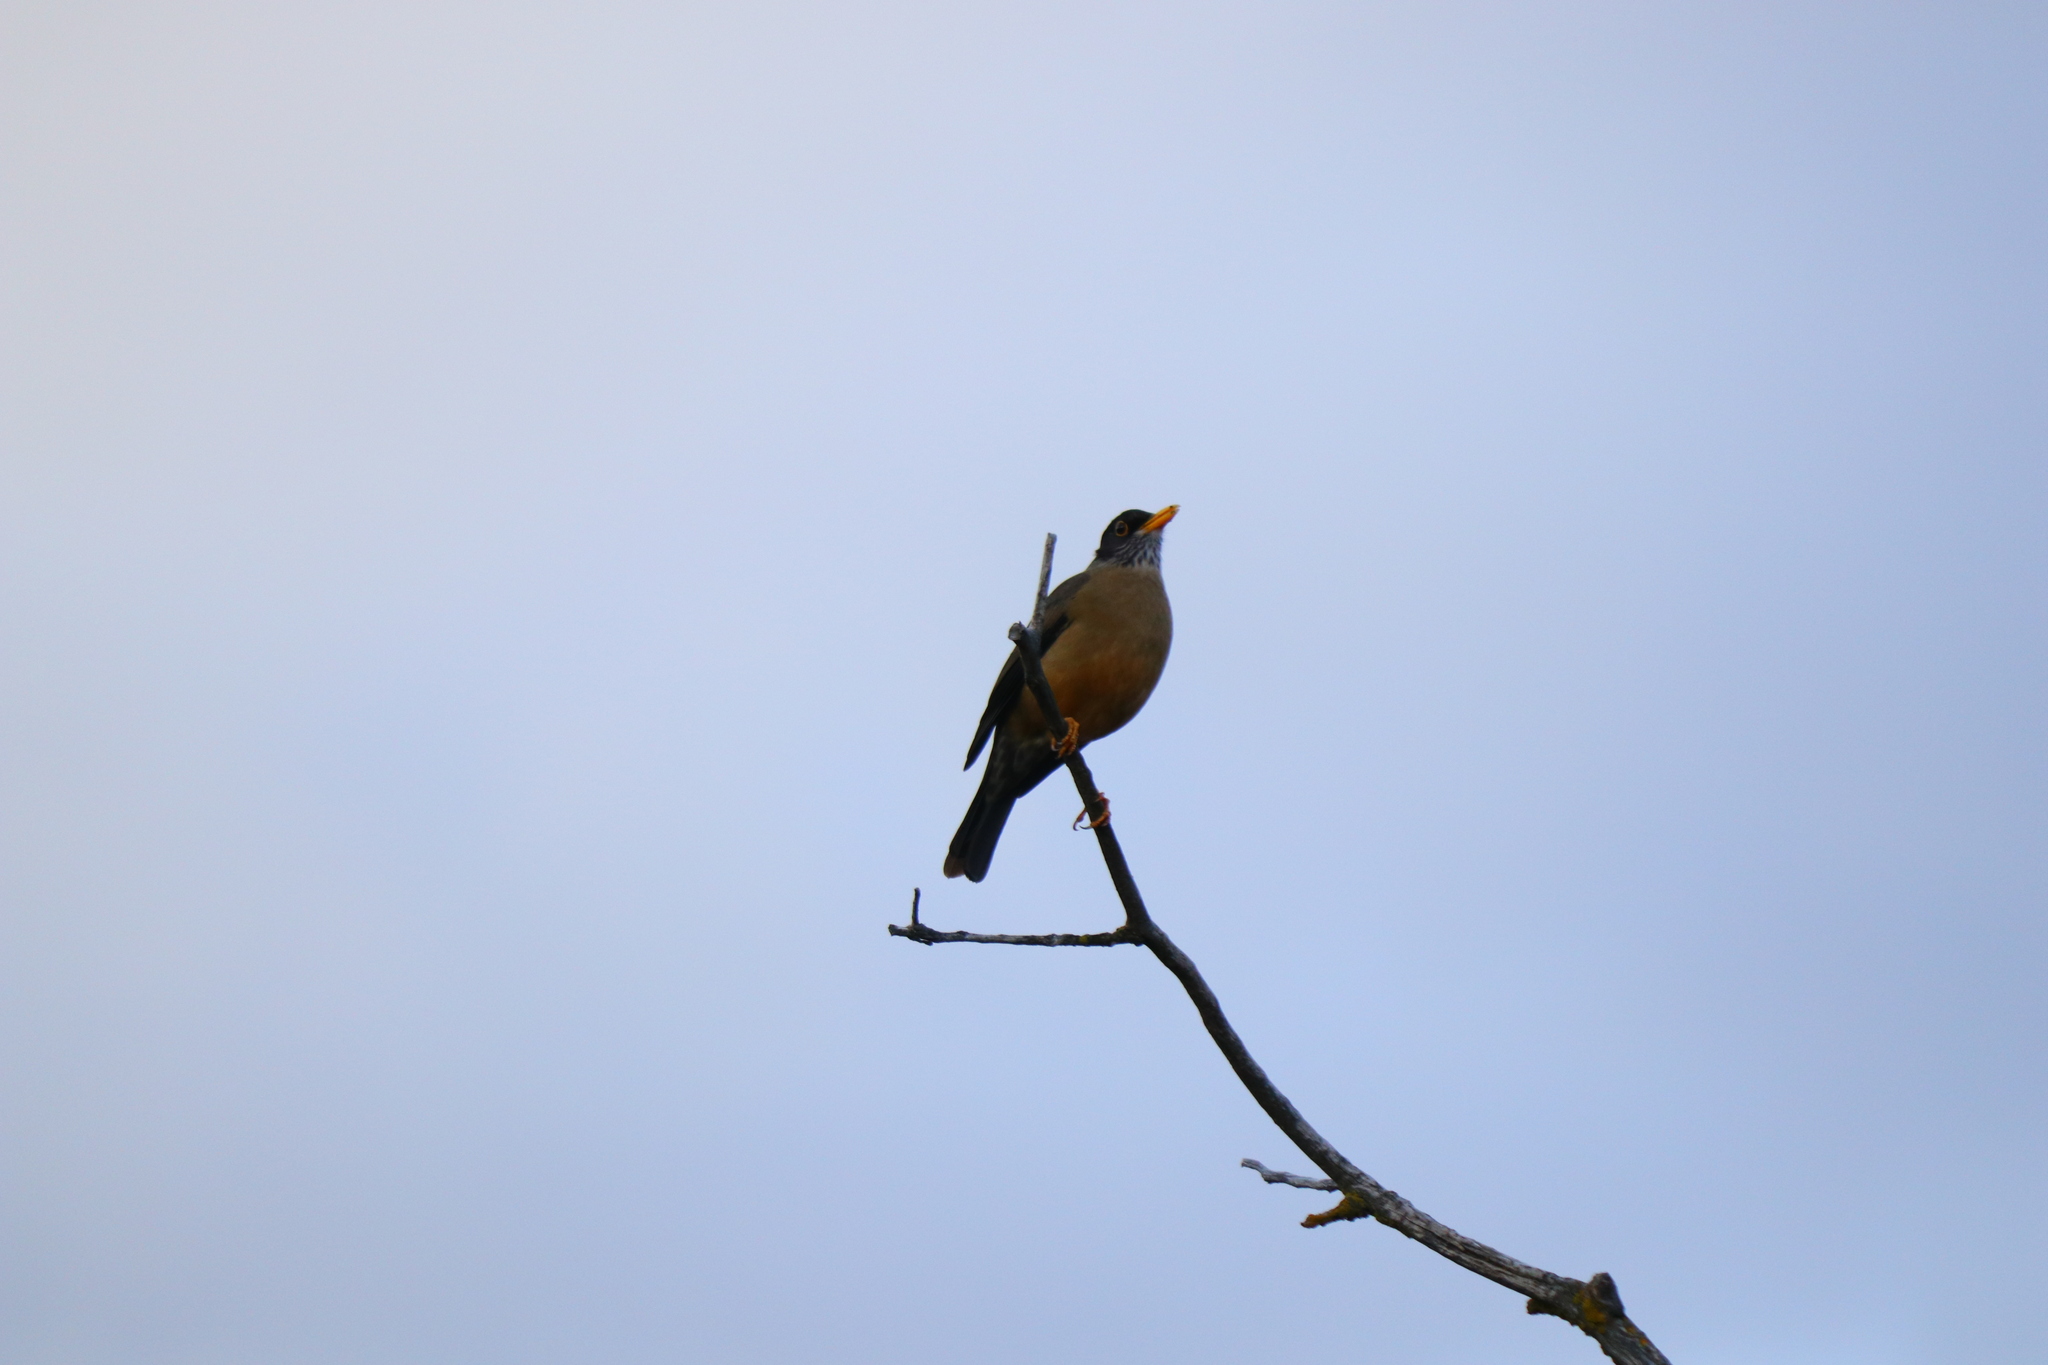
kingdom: Animalia
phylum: Chordata
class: Aves
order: Passeriformes
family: Turdidae
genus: Turdus
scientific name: Turdus falcklandii
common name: Austral thrush
